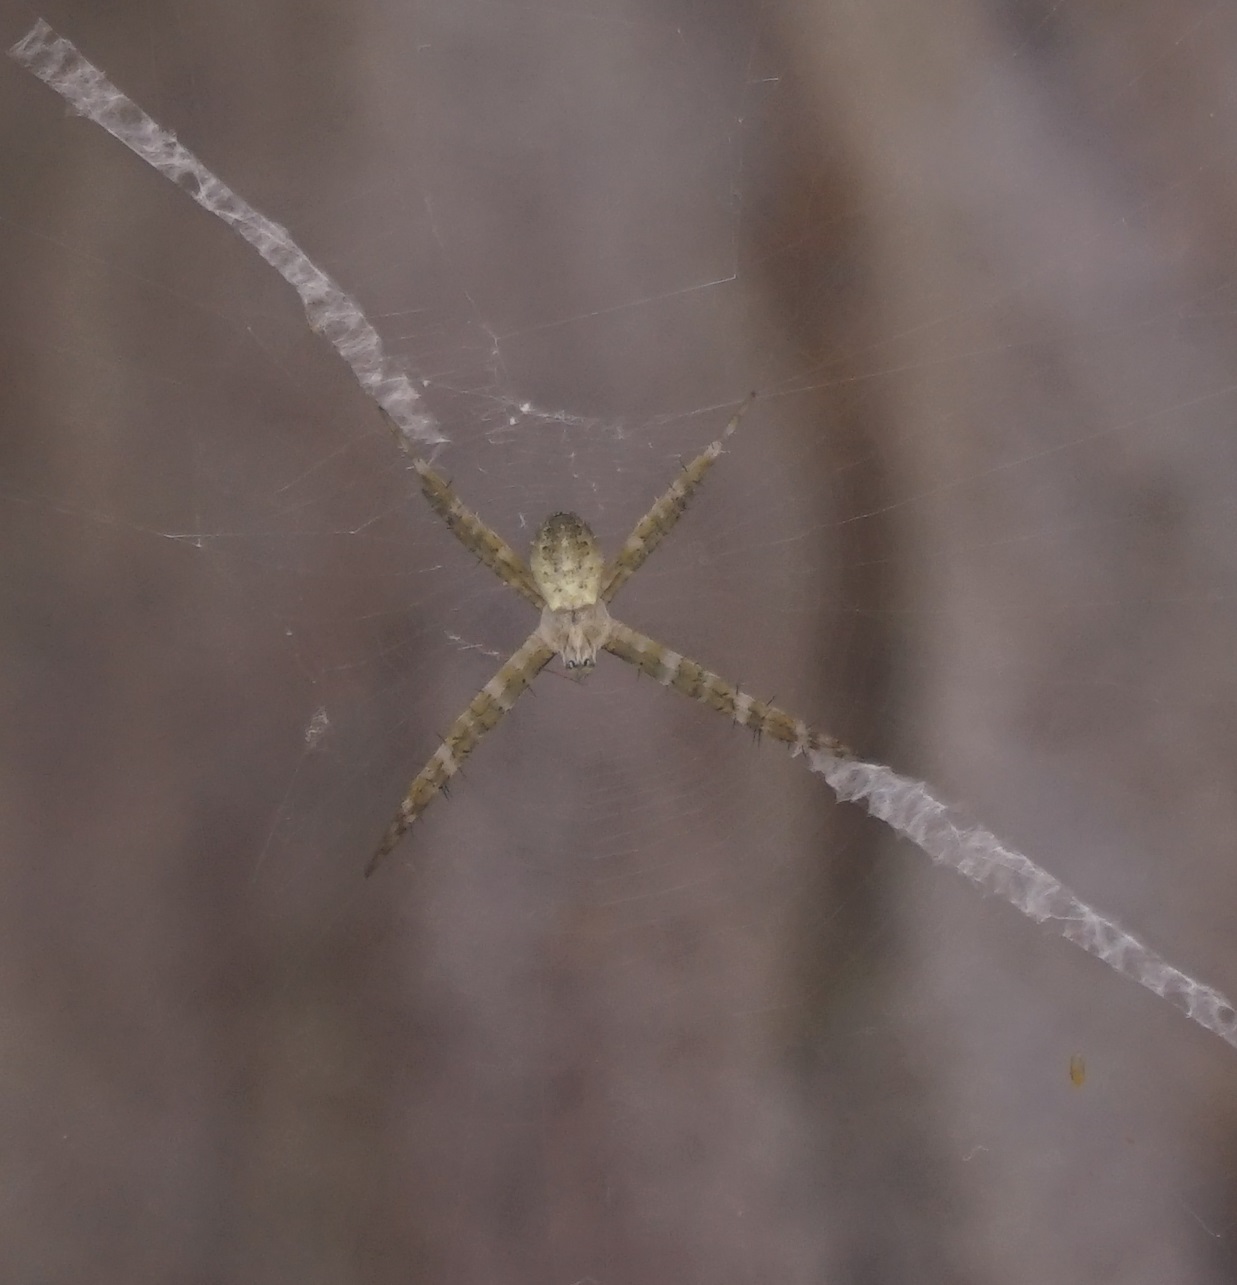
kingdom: Animalia
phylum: Arthropoda
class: Arachnida
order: Araneae
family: Araneidae
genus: Argiope
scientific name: Argiope keyserlingi
